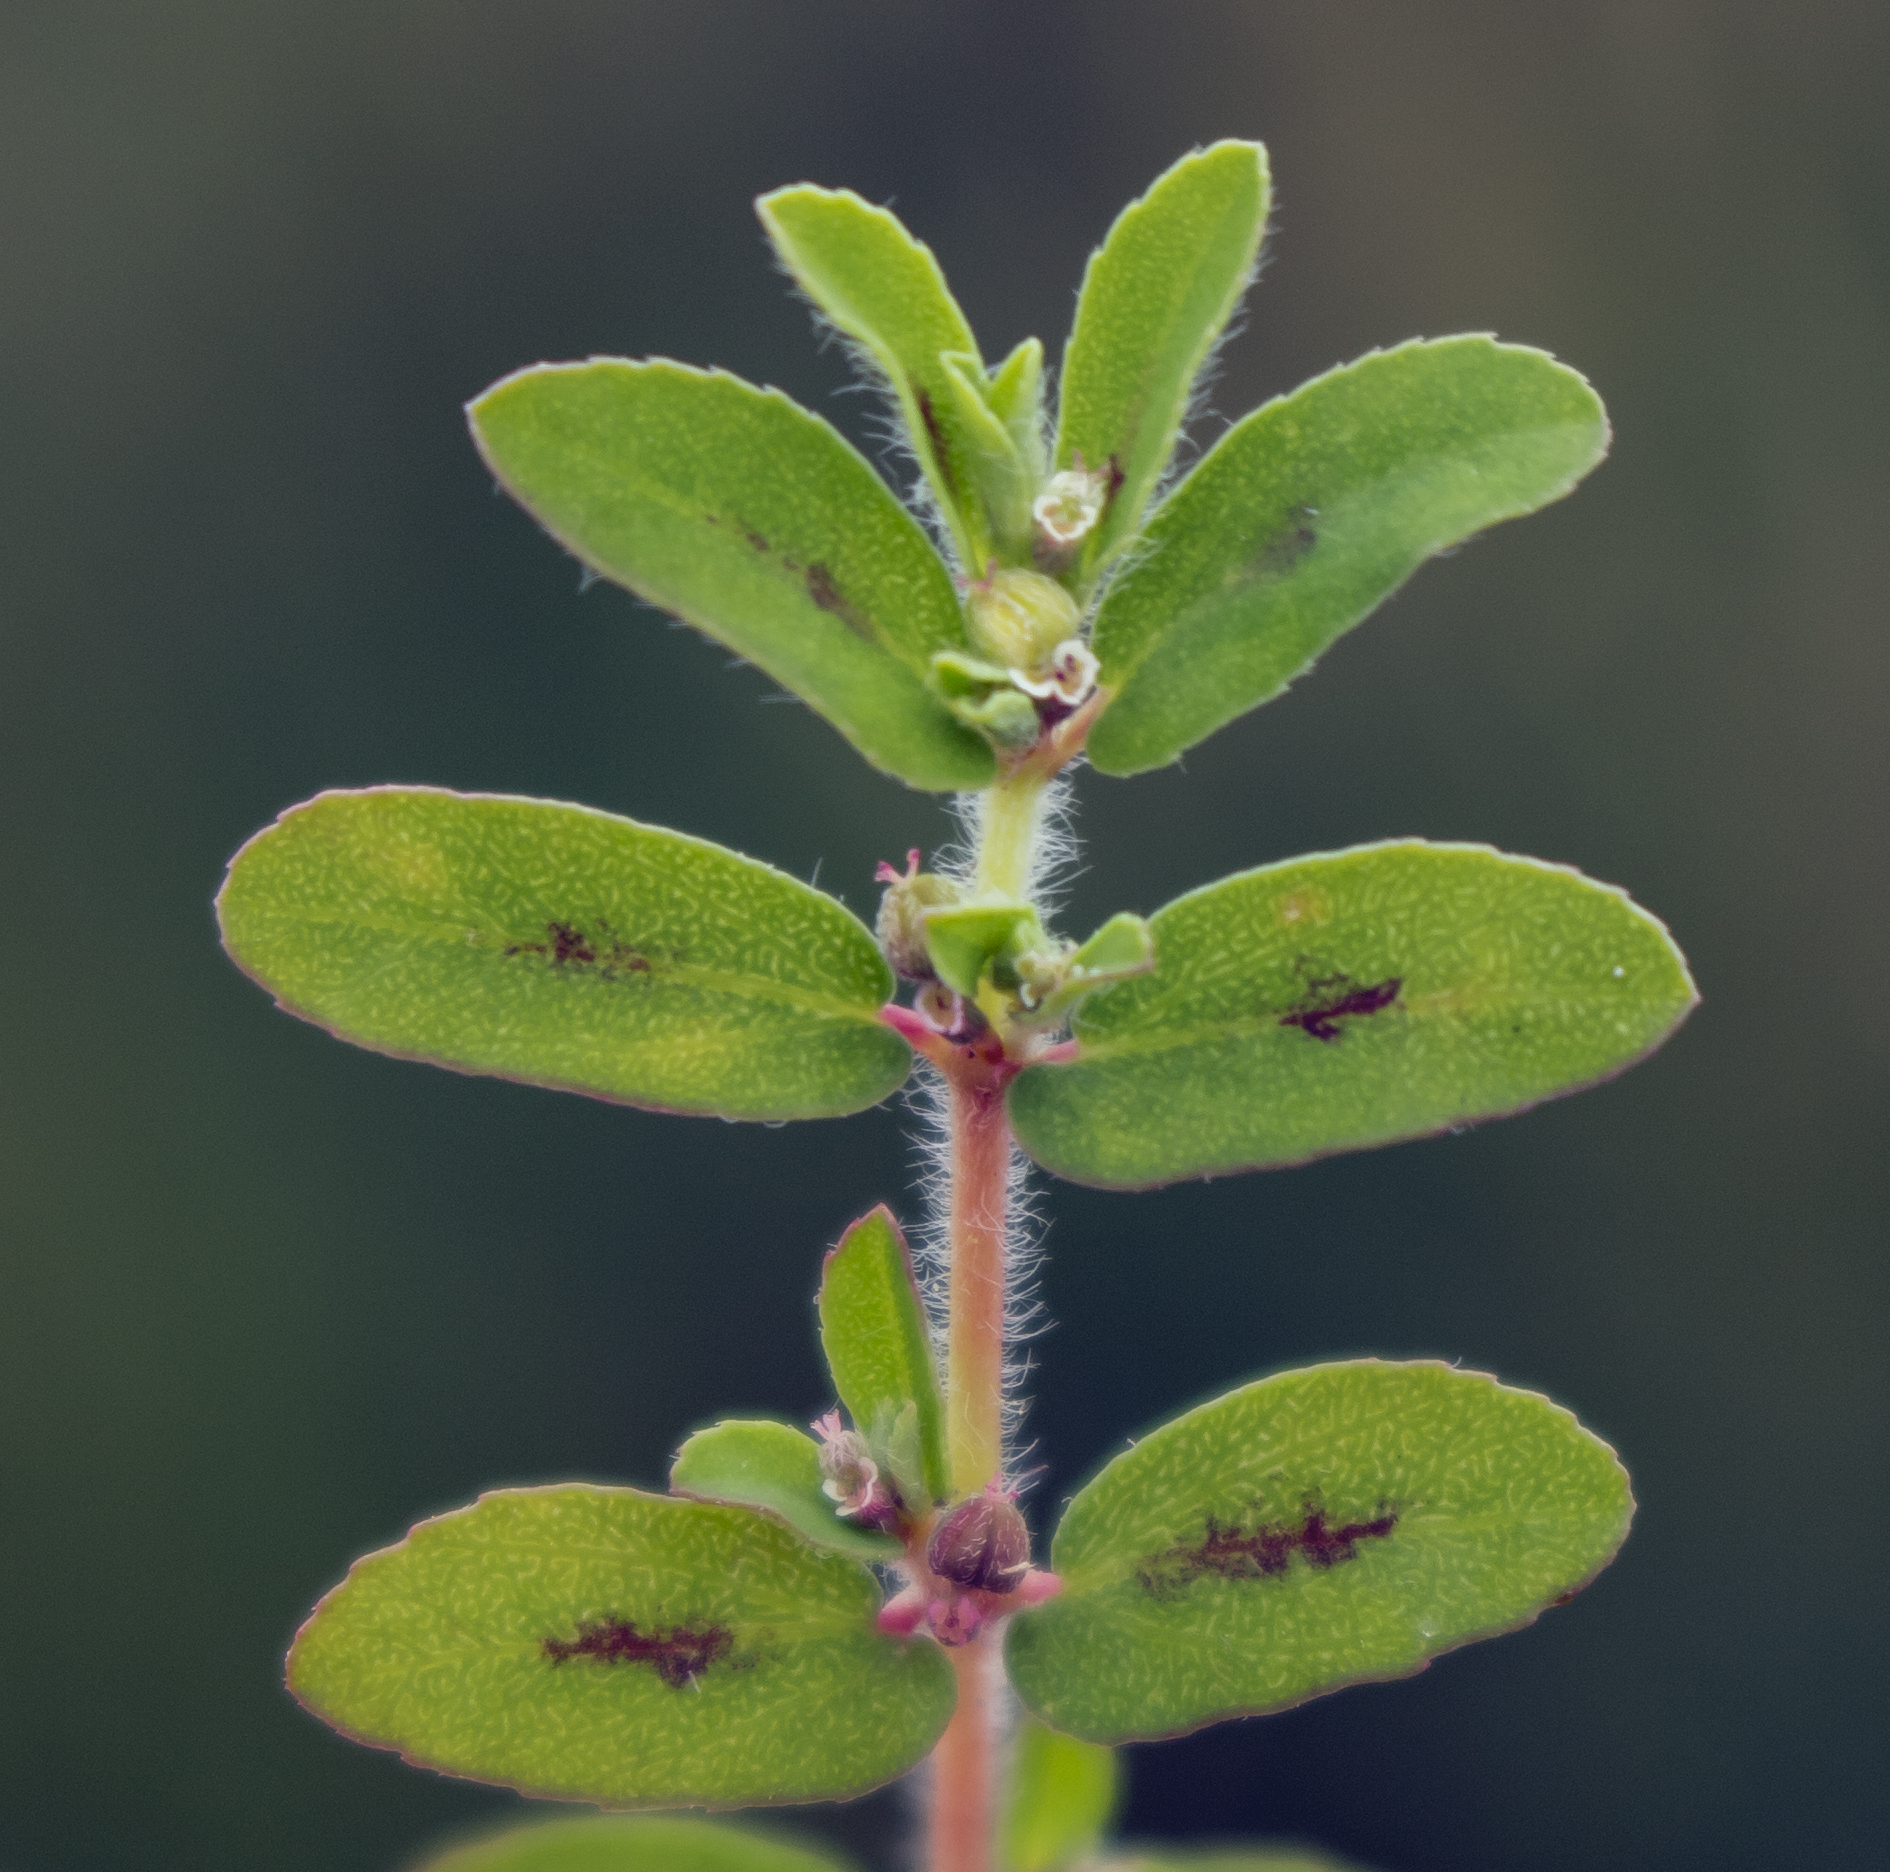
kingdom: Plantae
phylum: Tracheophyta
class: Magnoliopsida
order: Malpighiales
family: Euphorbiaceae
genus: Euphorbia
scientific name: Euphorbia maculata
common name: Spotted spurge
